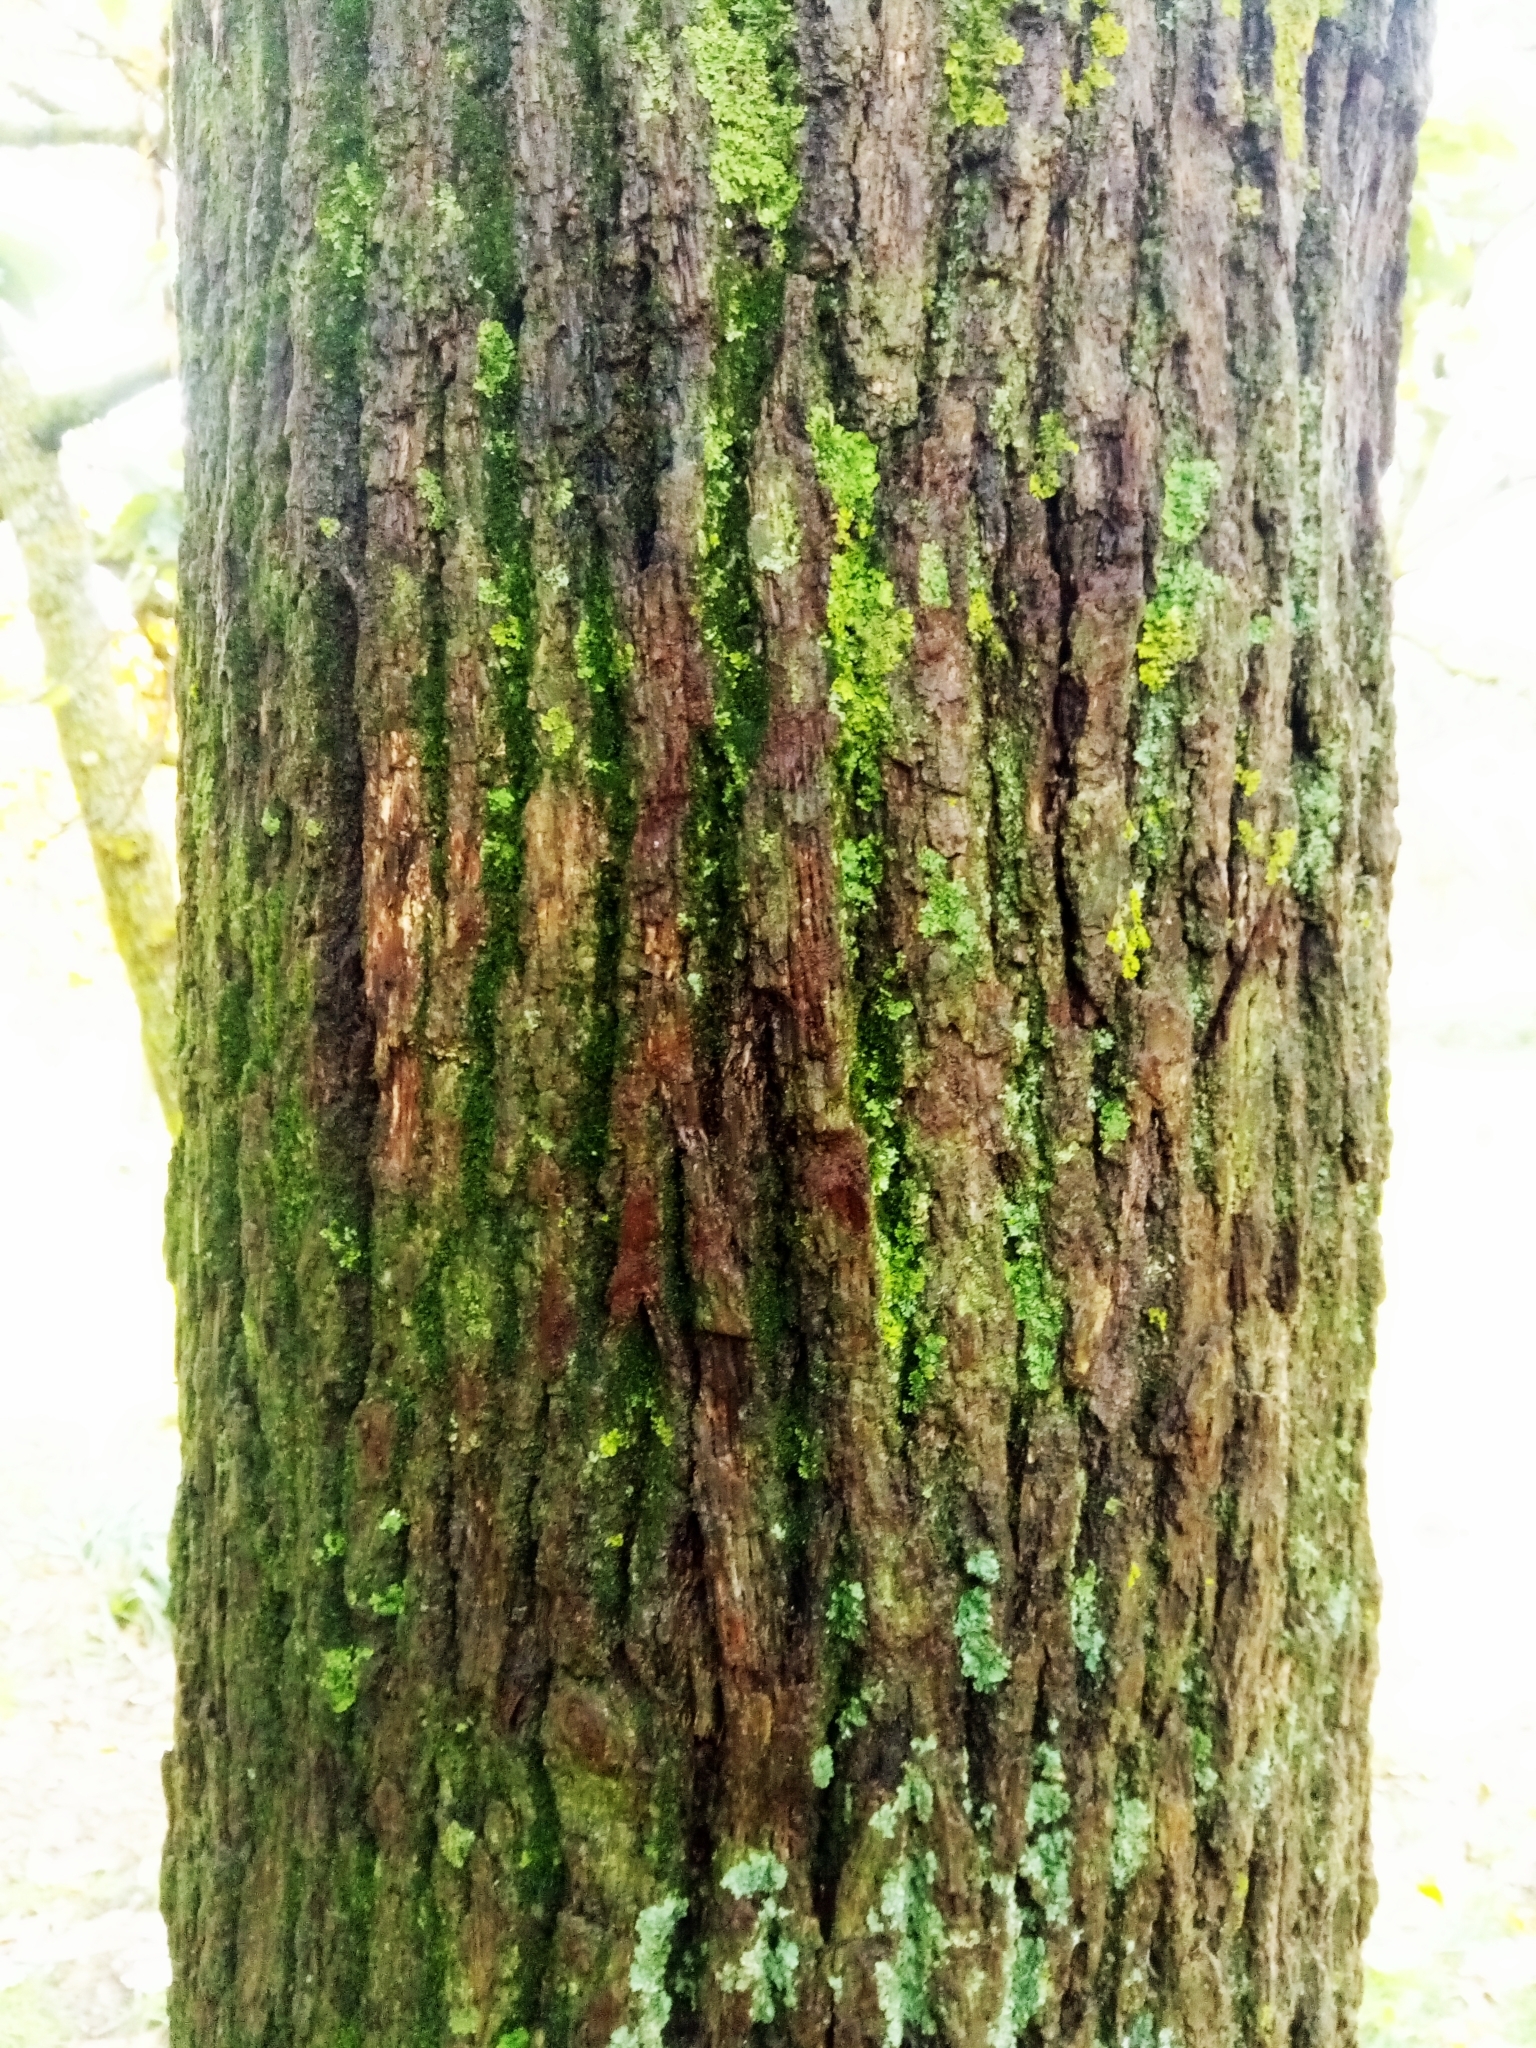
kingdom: Plantae
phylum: Tracheophyta
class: Magnoliopsida
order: Fagales
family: Fagaceae
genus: Quercus
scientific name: Quercus canariensis
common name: Algerian oak
